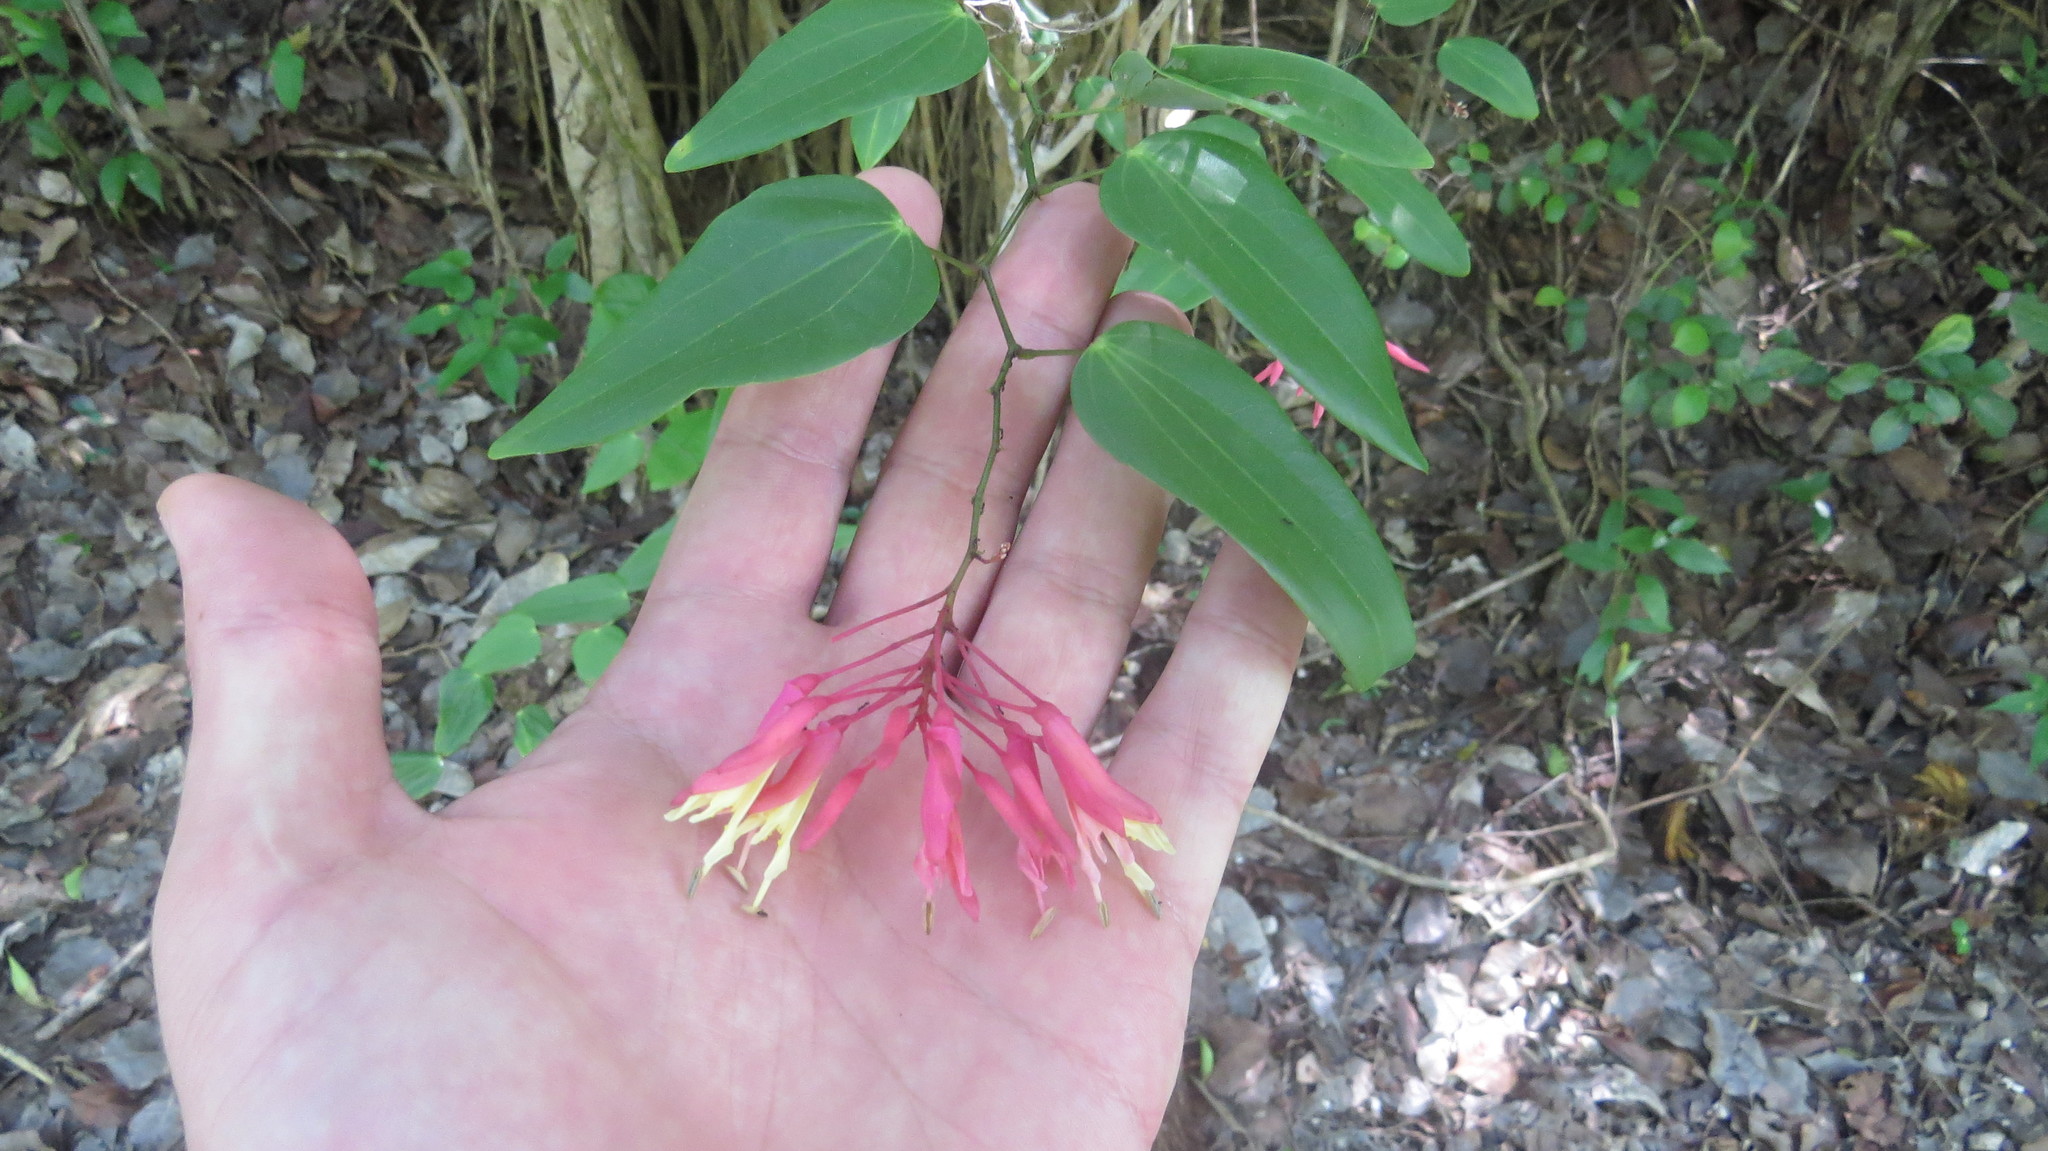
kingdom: Plantae
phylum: Tracheophyta
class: Magnoliopsida
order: Fabales
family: Fabaceae
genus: Bauhinia
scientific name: Bauhinia jenningsii
